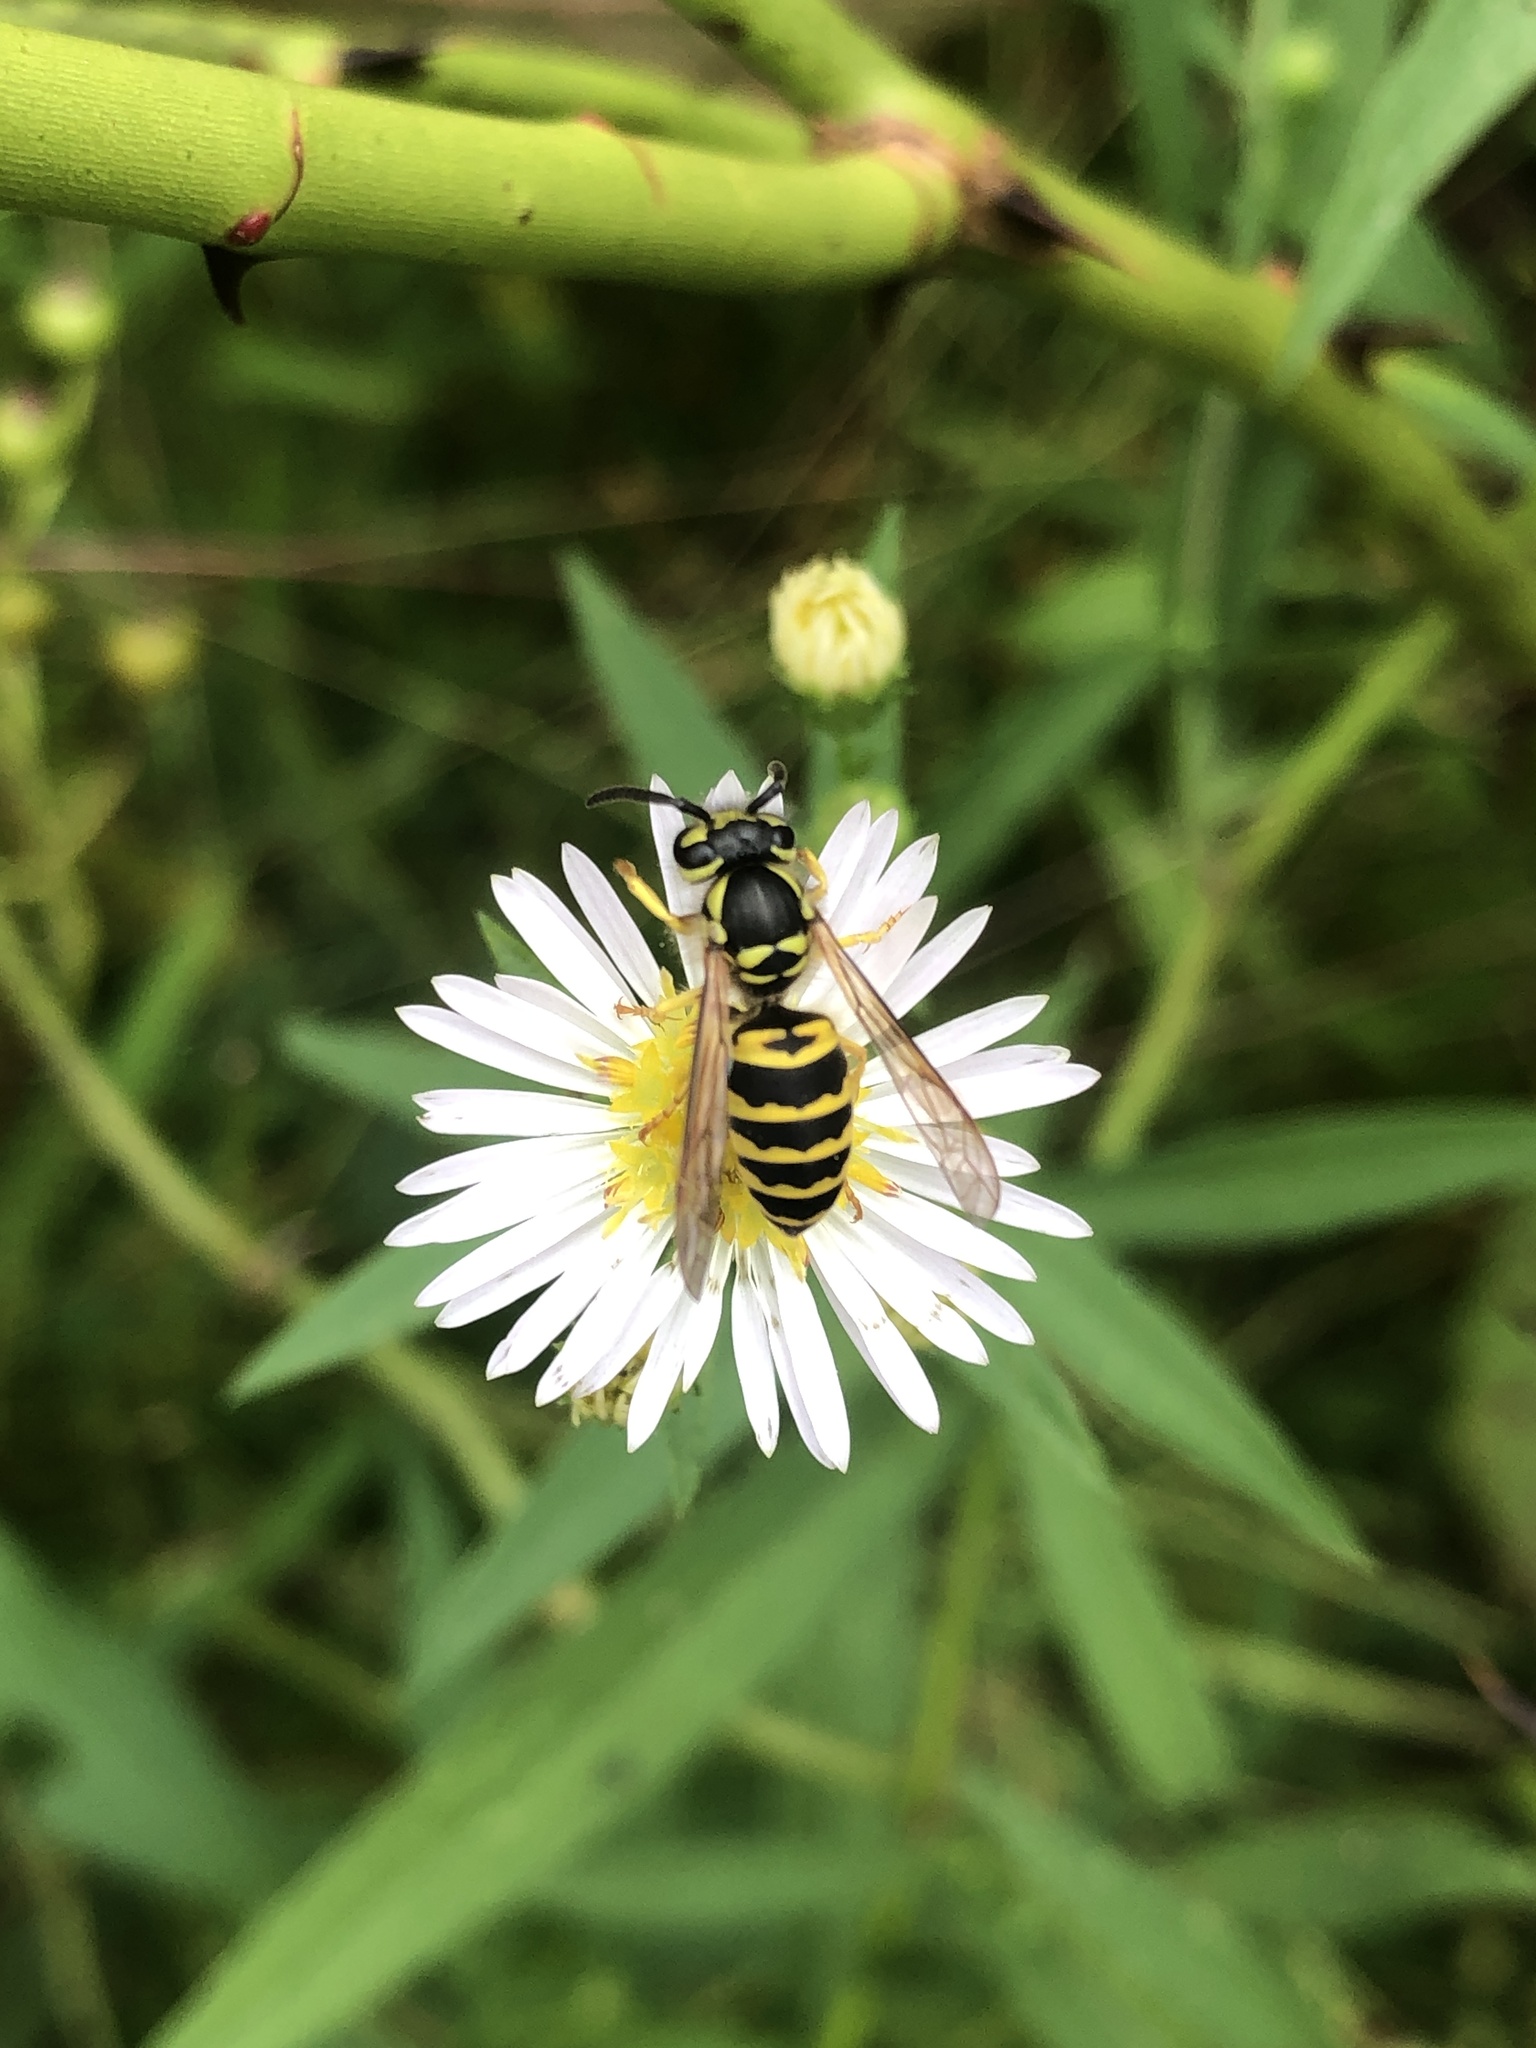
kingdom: Animalia
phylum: Arthropoda
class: Insecta
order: Hymenoptera
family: Vespidae
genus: Vespula
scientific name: Vespula maculifrons
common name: Eastern yellowjacket
